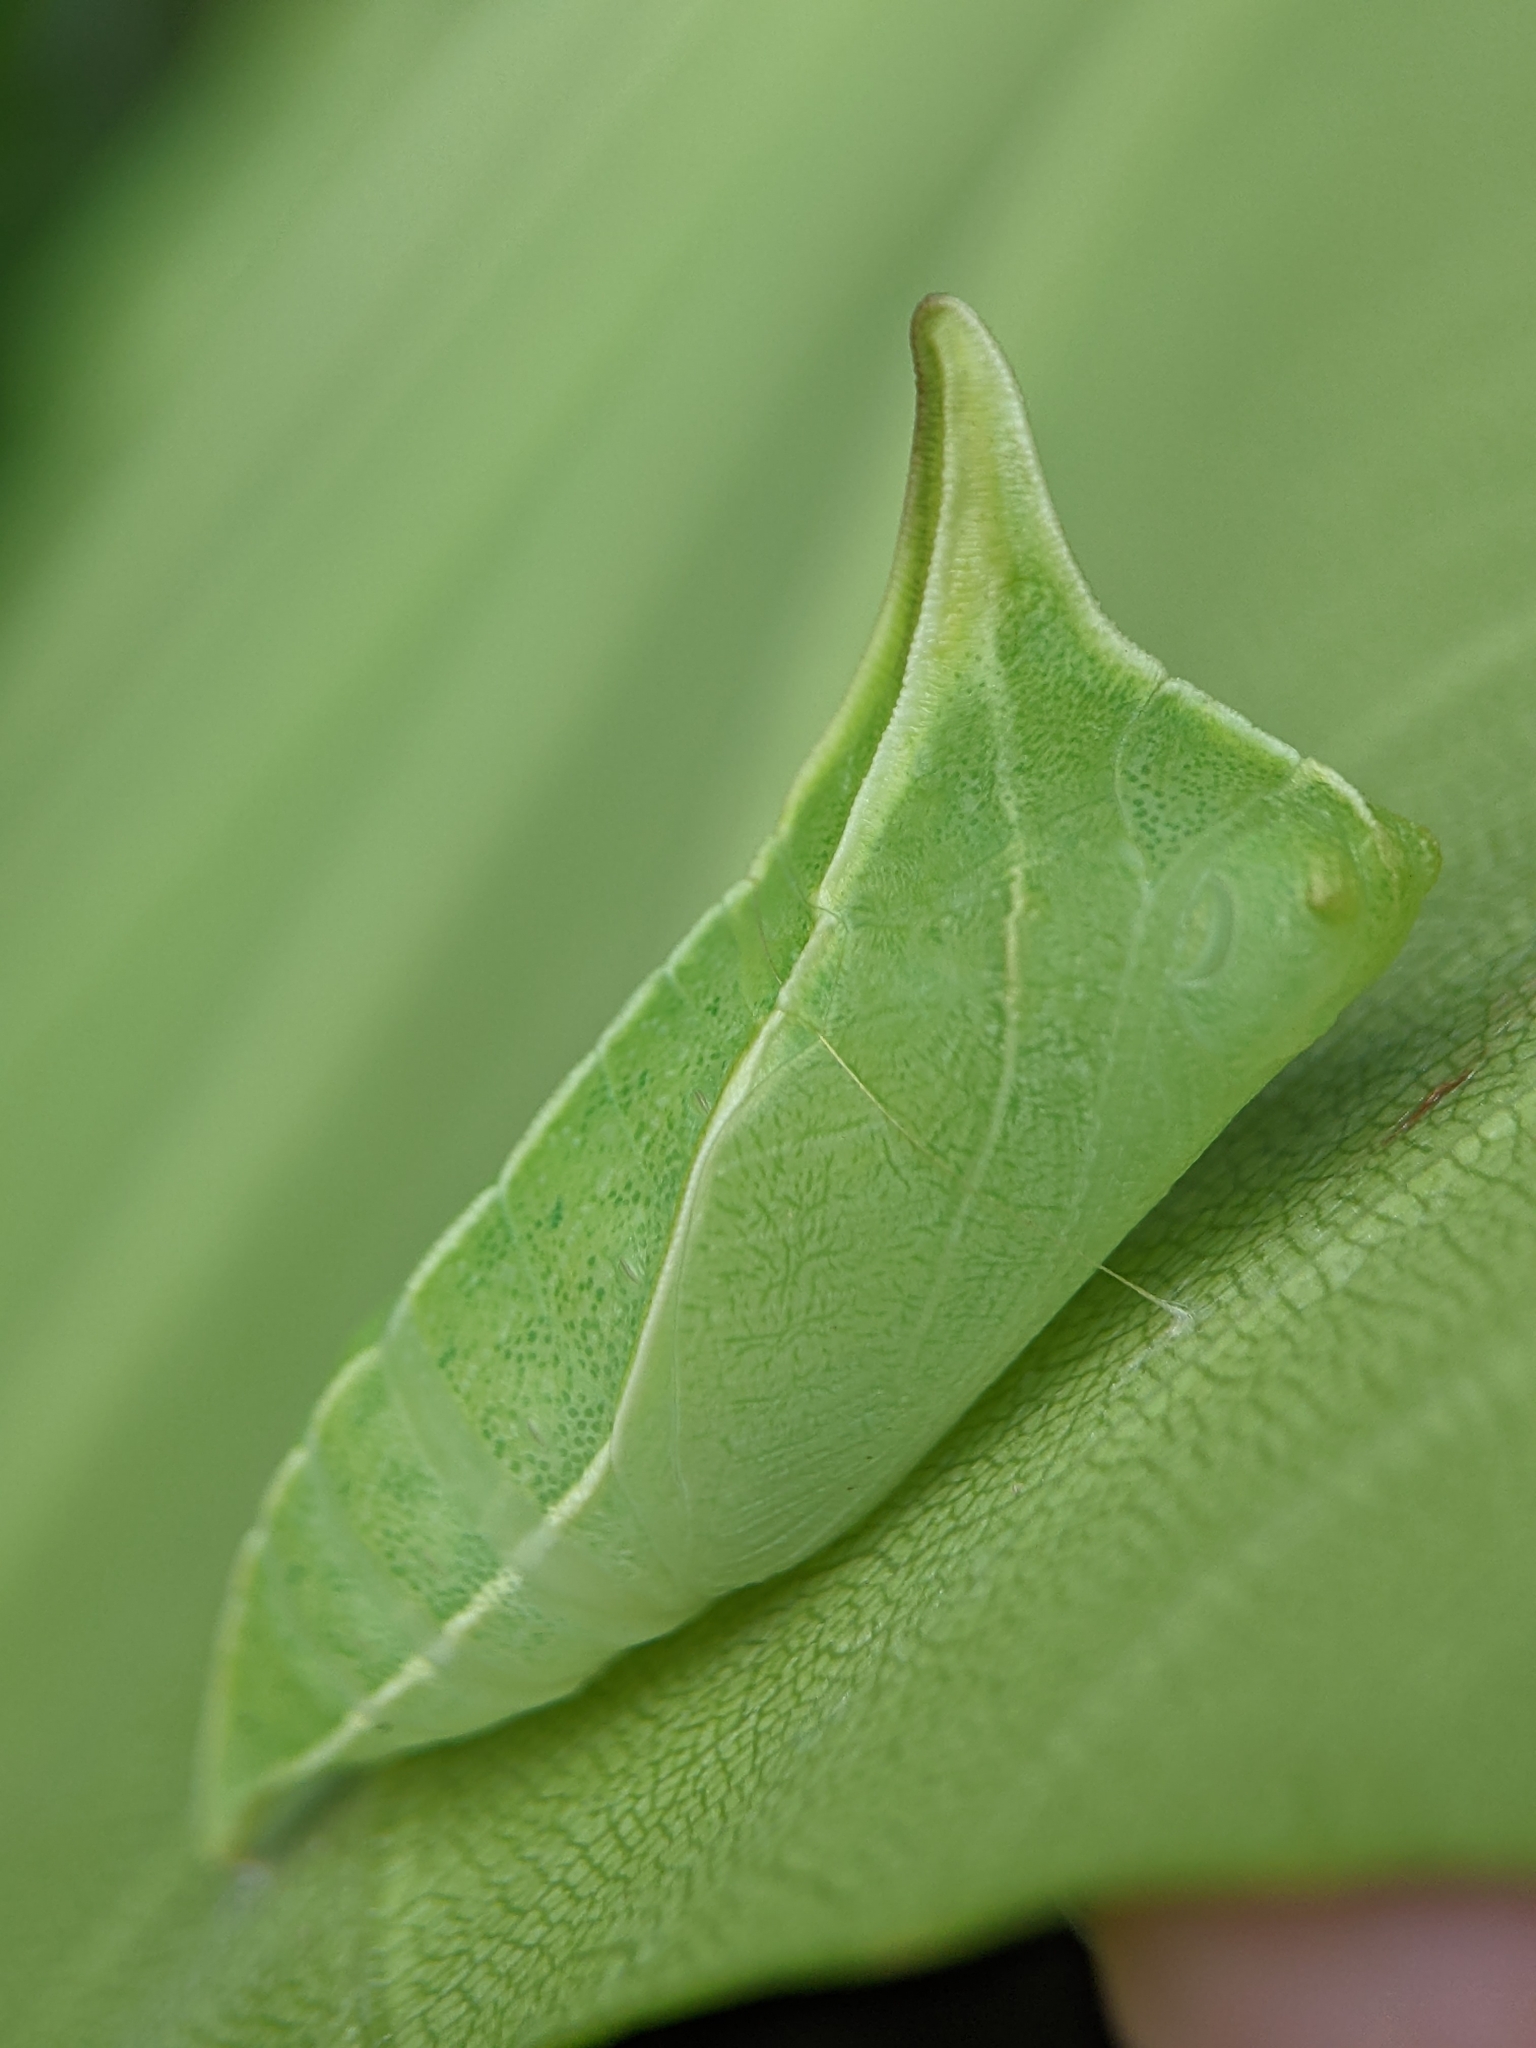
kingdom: Fungi
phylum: Ascomycota
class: Sordariomycetes
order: Microascales
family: Microascaceae
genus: Graphium
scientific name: Graphium sarpedon
